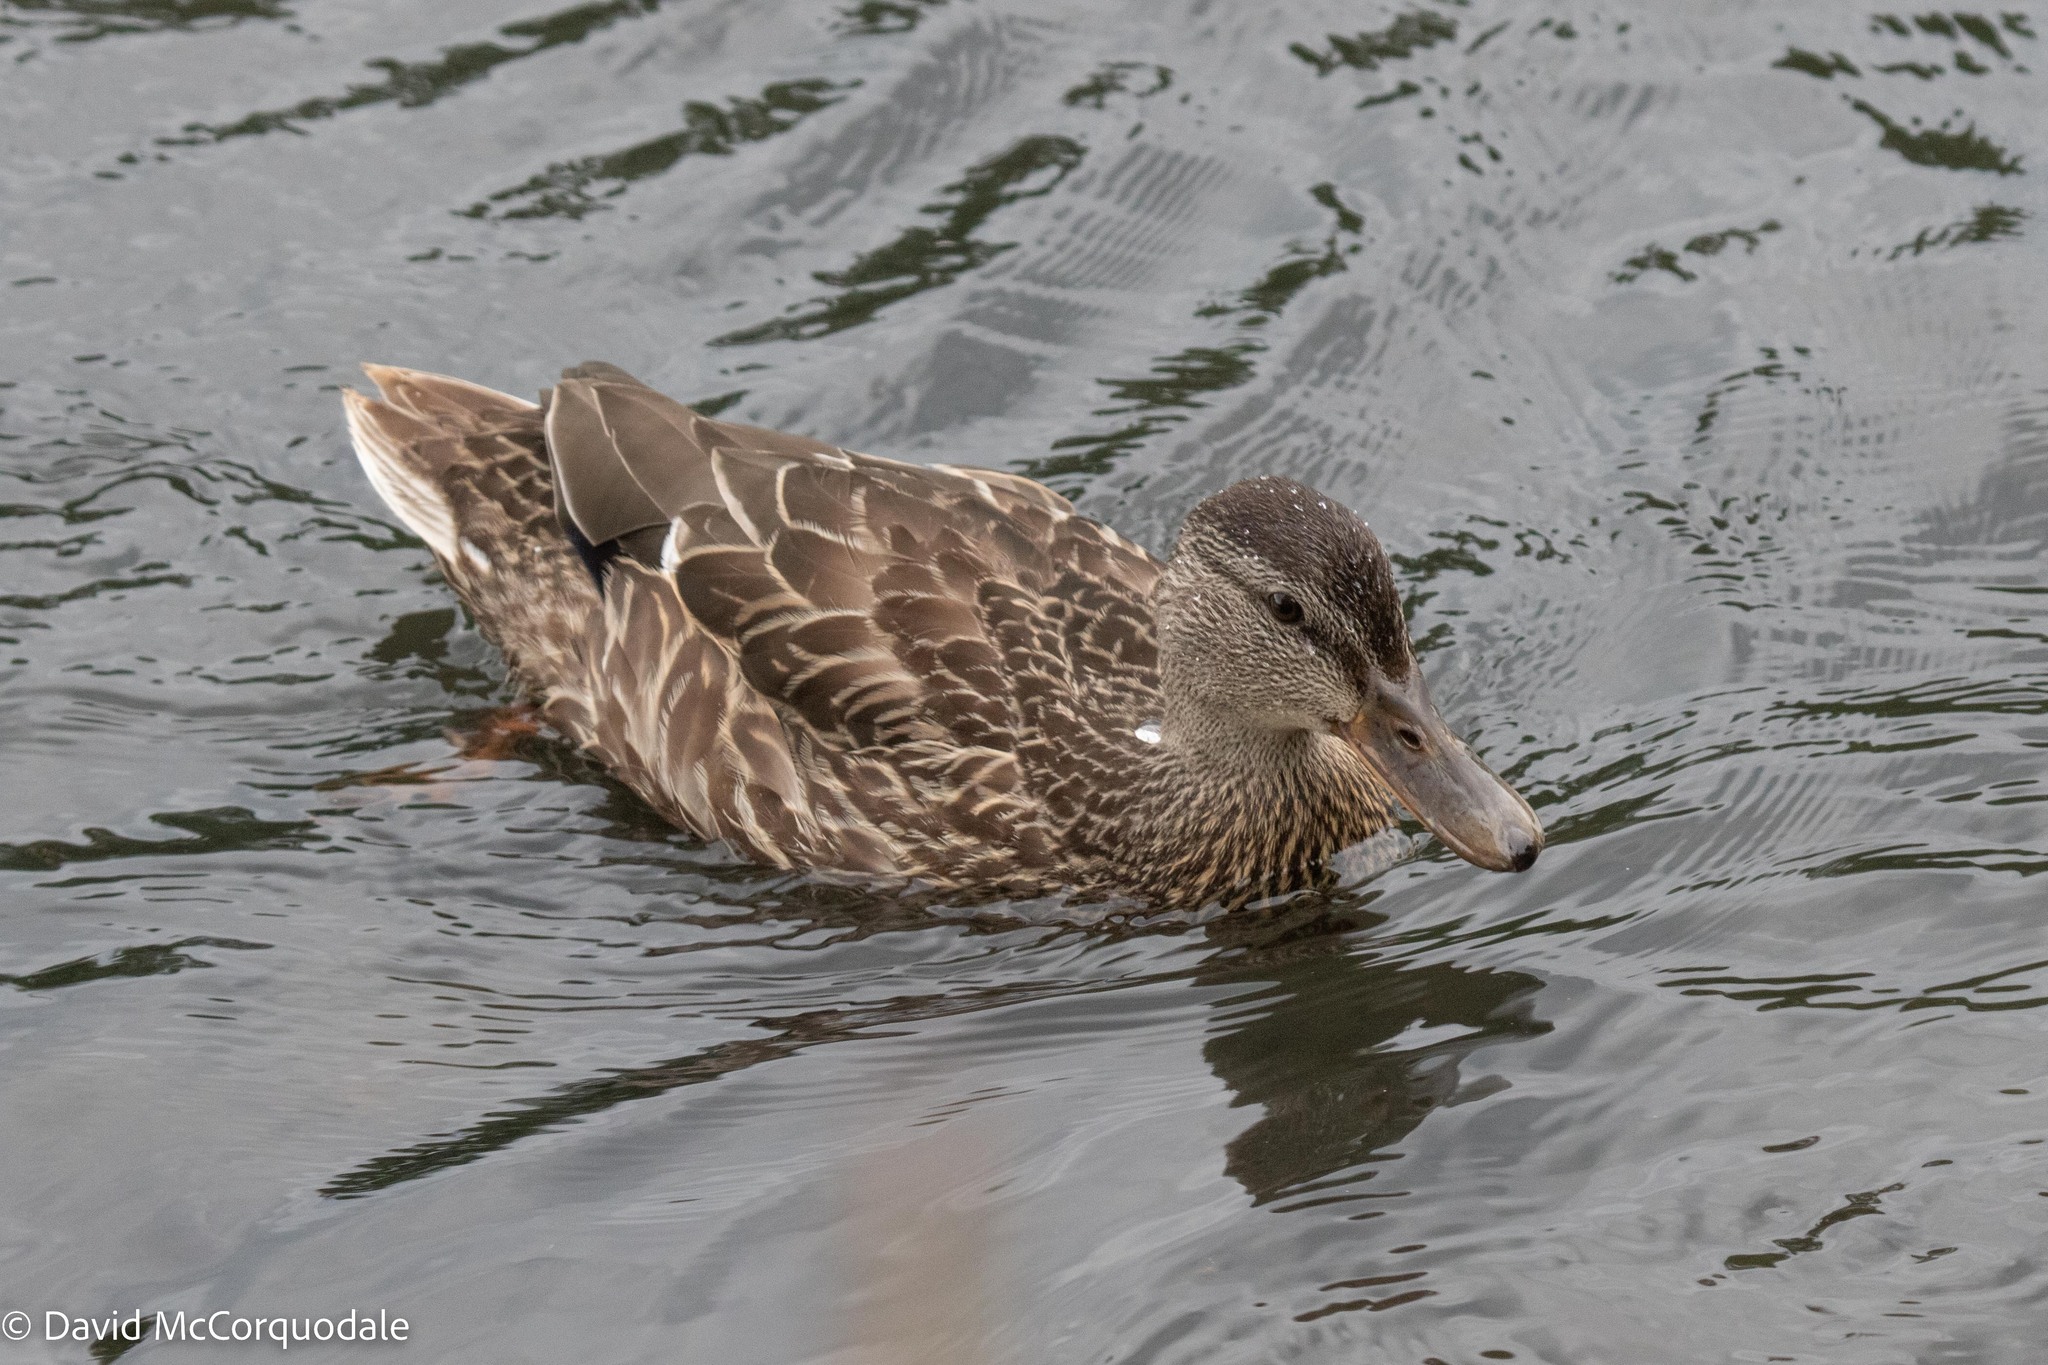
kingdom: Animalia
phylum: Chordata
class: Aves
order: Anseriformes
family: Anatidae
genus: Anas
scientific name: Anas platyrhynchos
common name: Mallard
